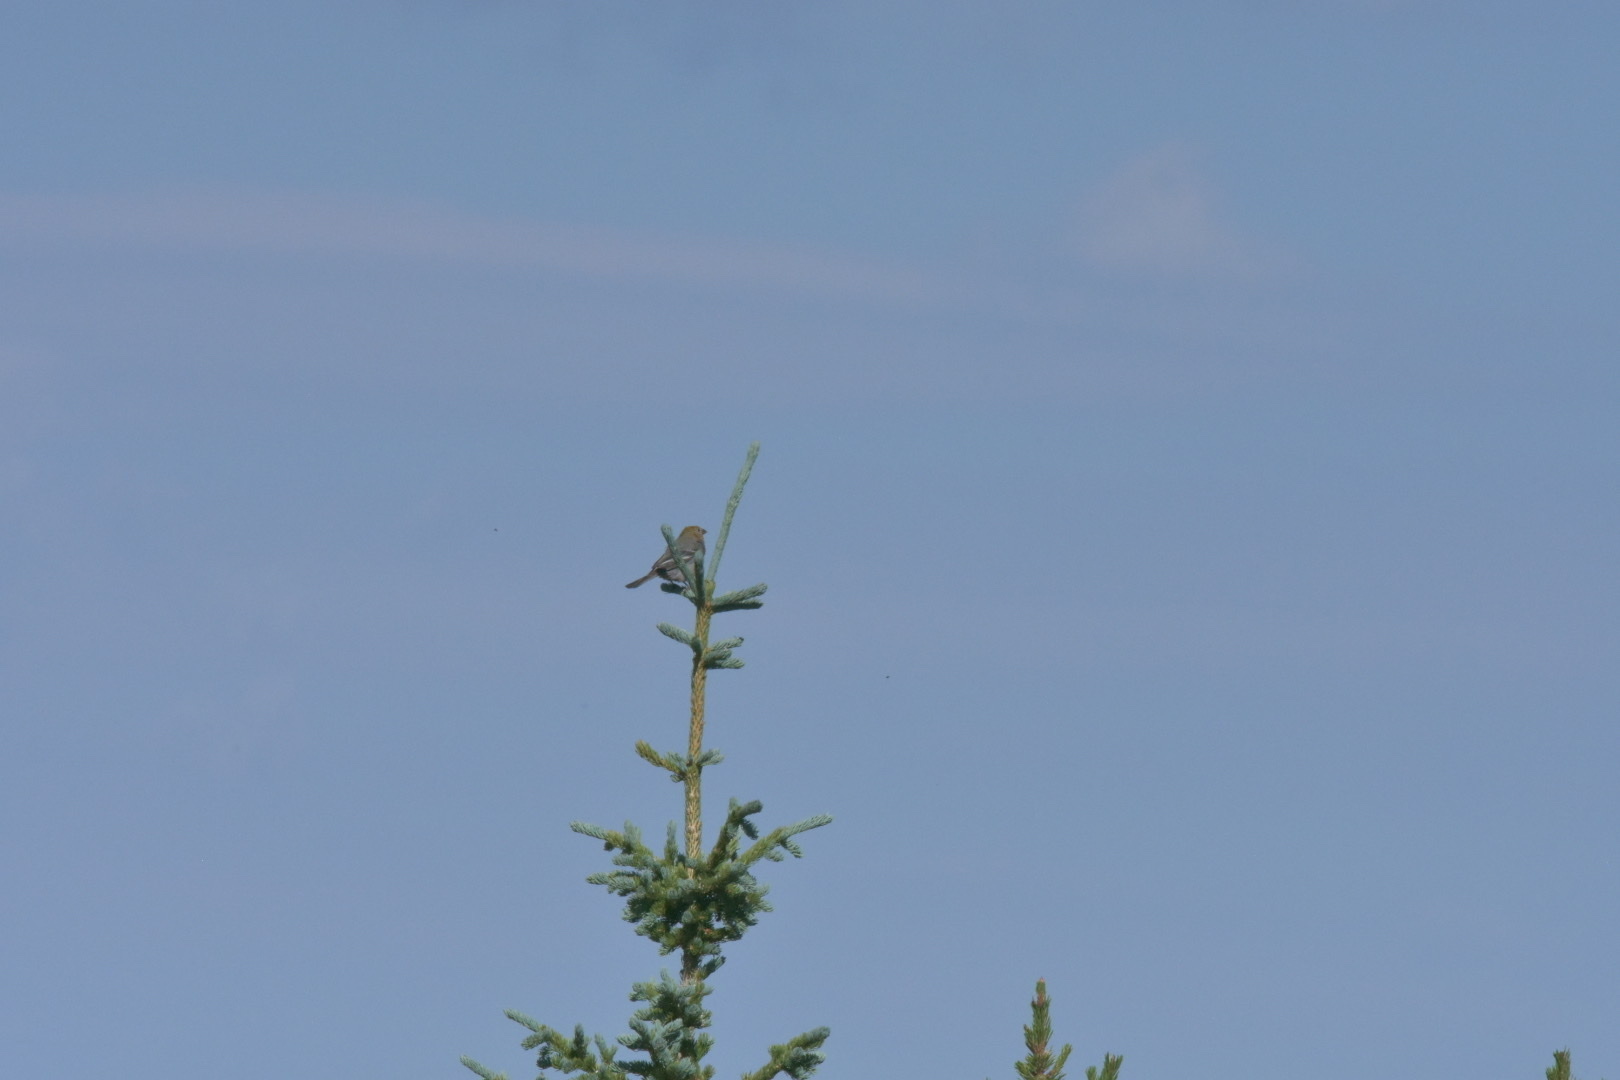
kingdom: Animalia
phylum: Chordata
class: Aves
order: Passeriformes
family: Fringillidae
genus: Pinicola
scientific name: Pinicola enucleator
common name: Pine grosbeak
